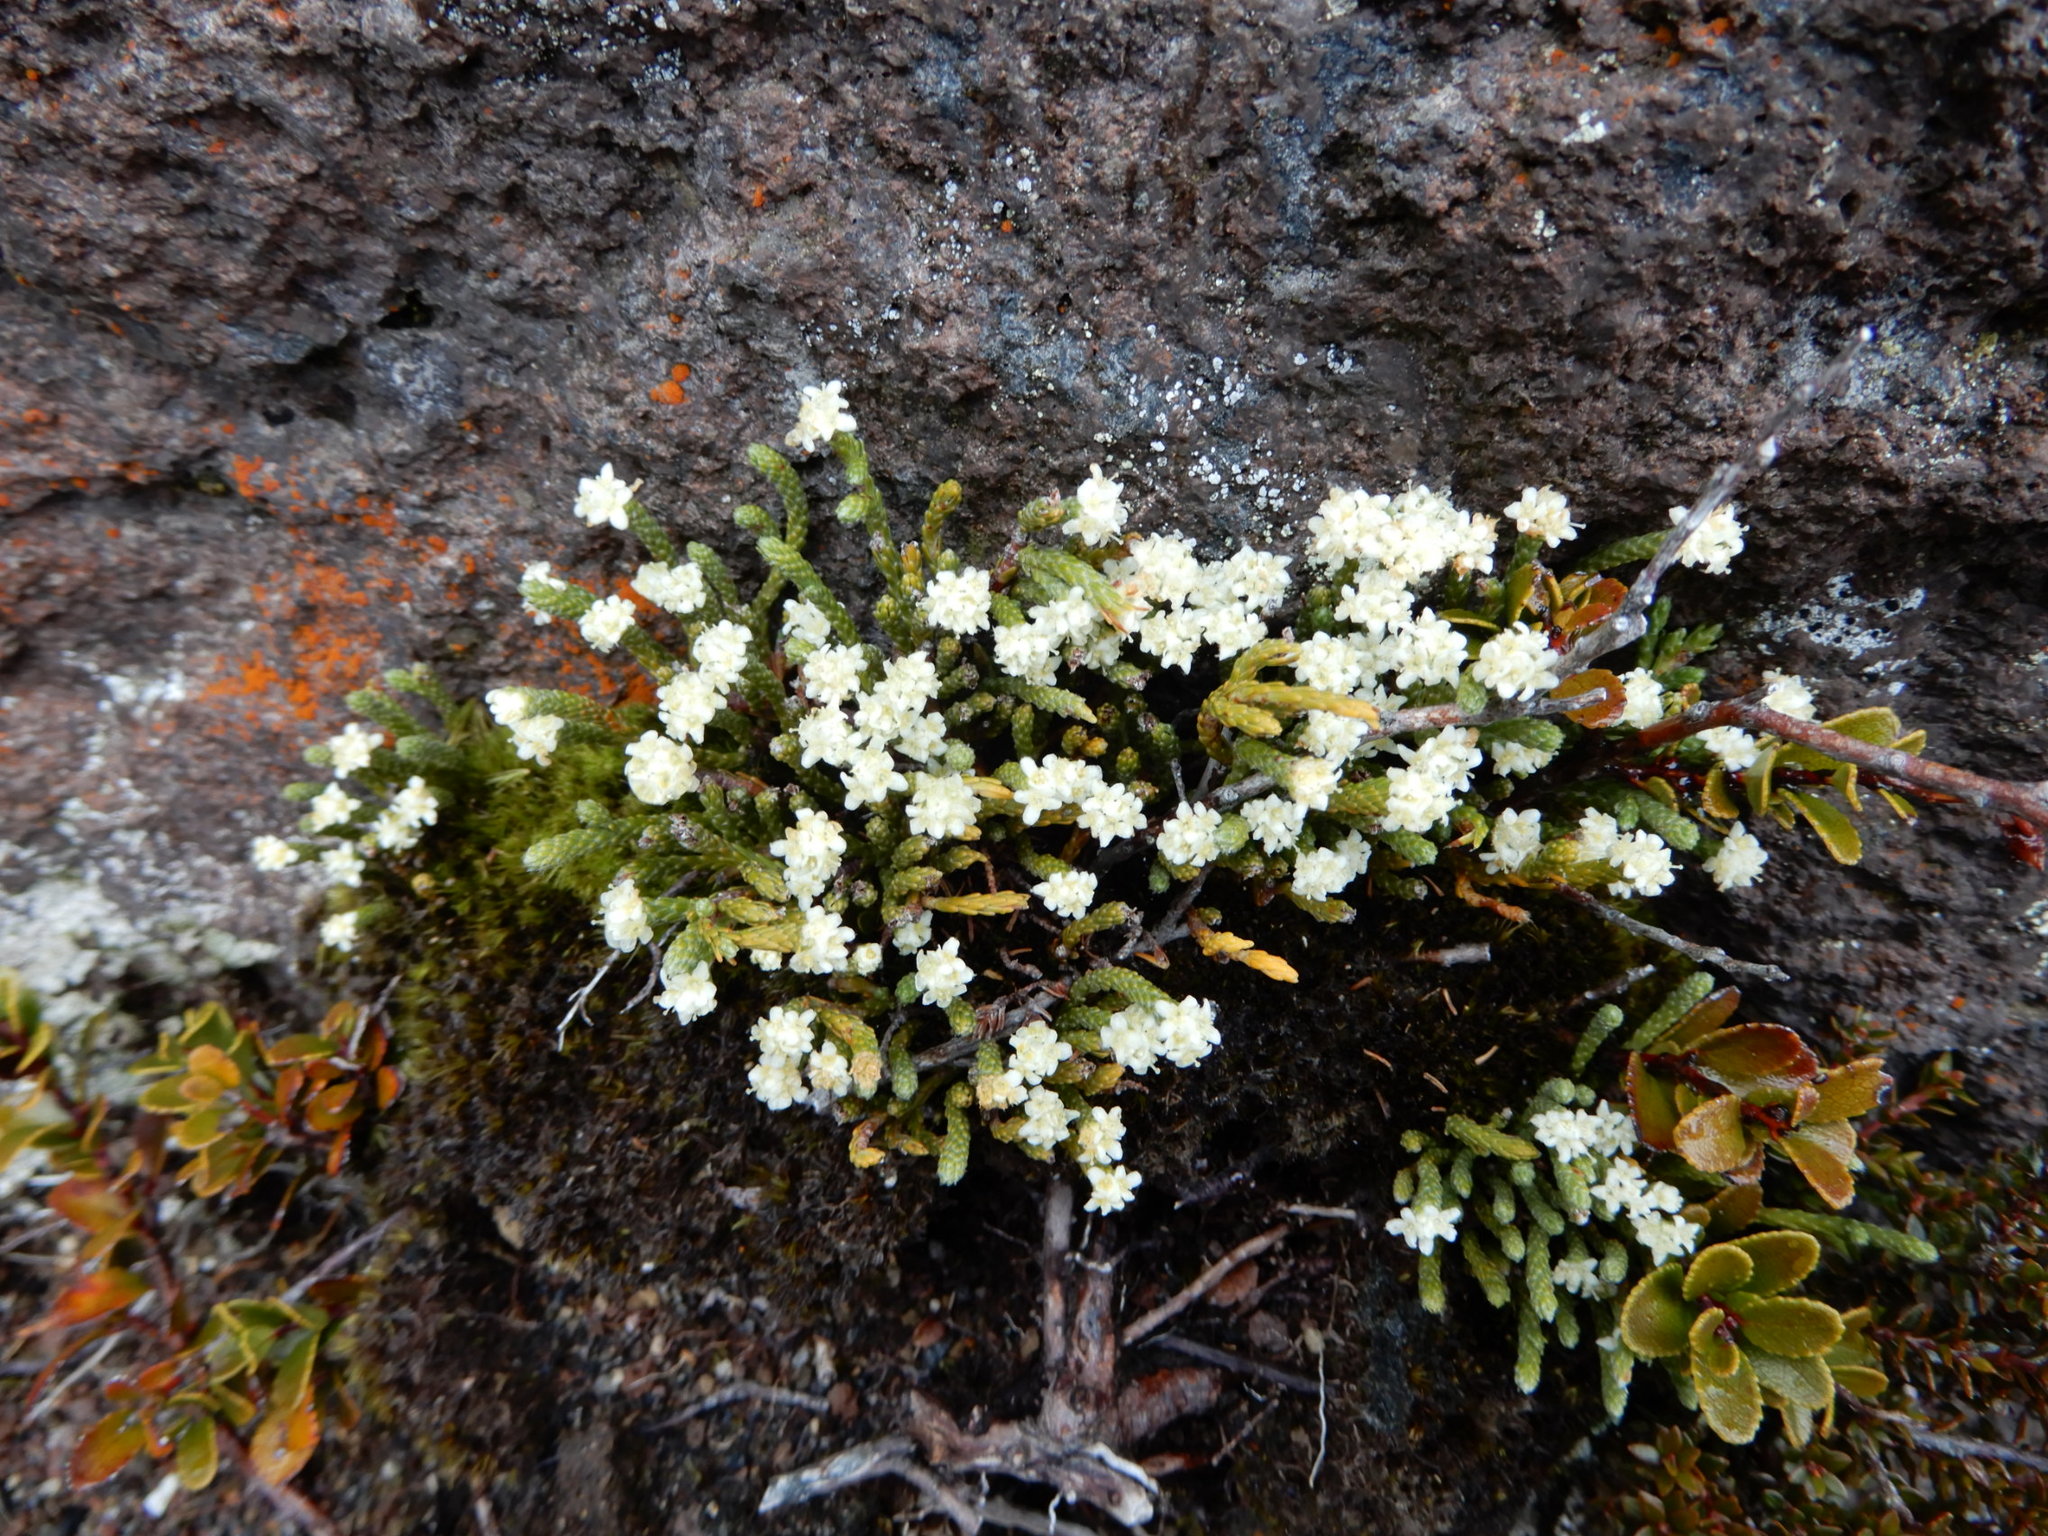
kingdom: Plantae
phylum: Tracheophyta
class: Magnoliopsida
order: Malvales
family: Thymelaeaceae
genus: Kelleria
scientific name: Kelleria dieffenbachii
